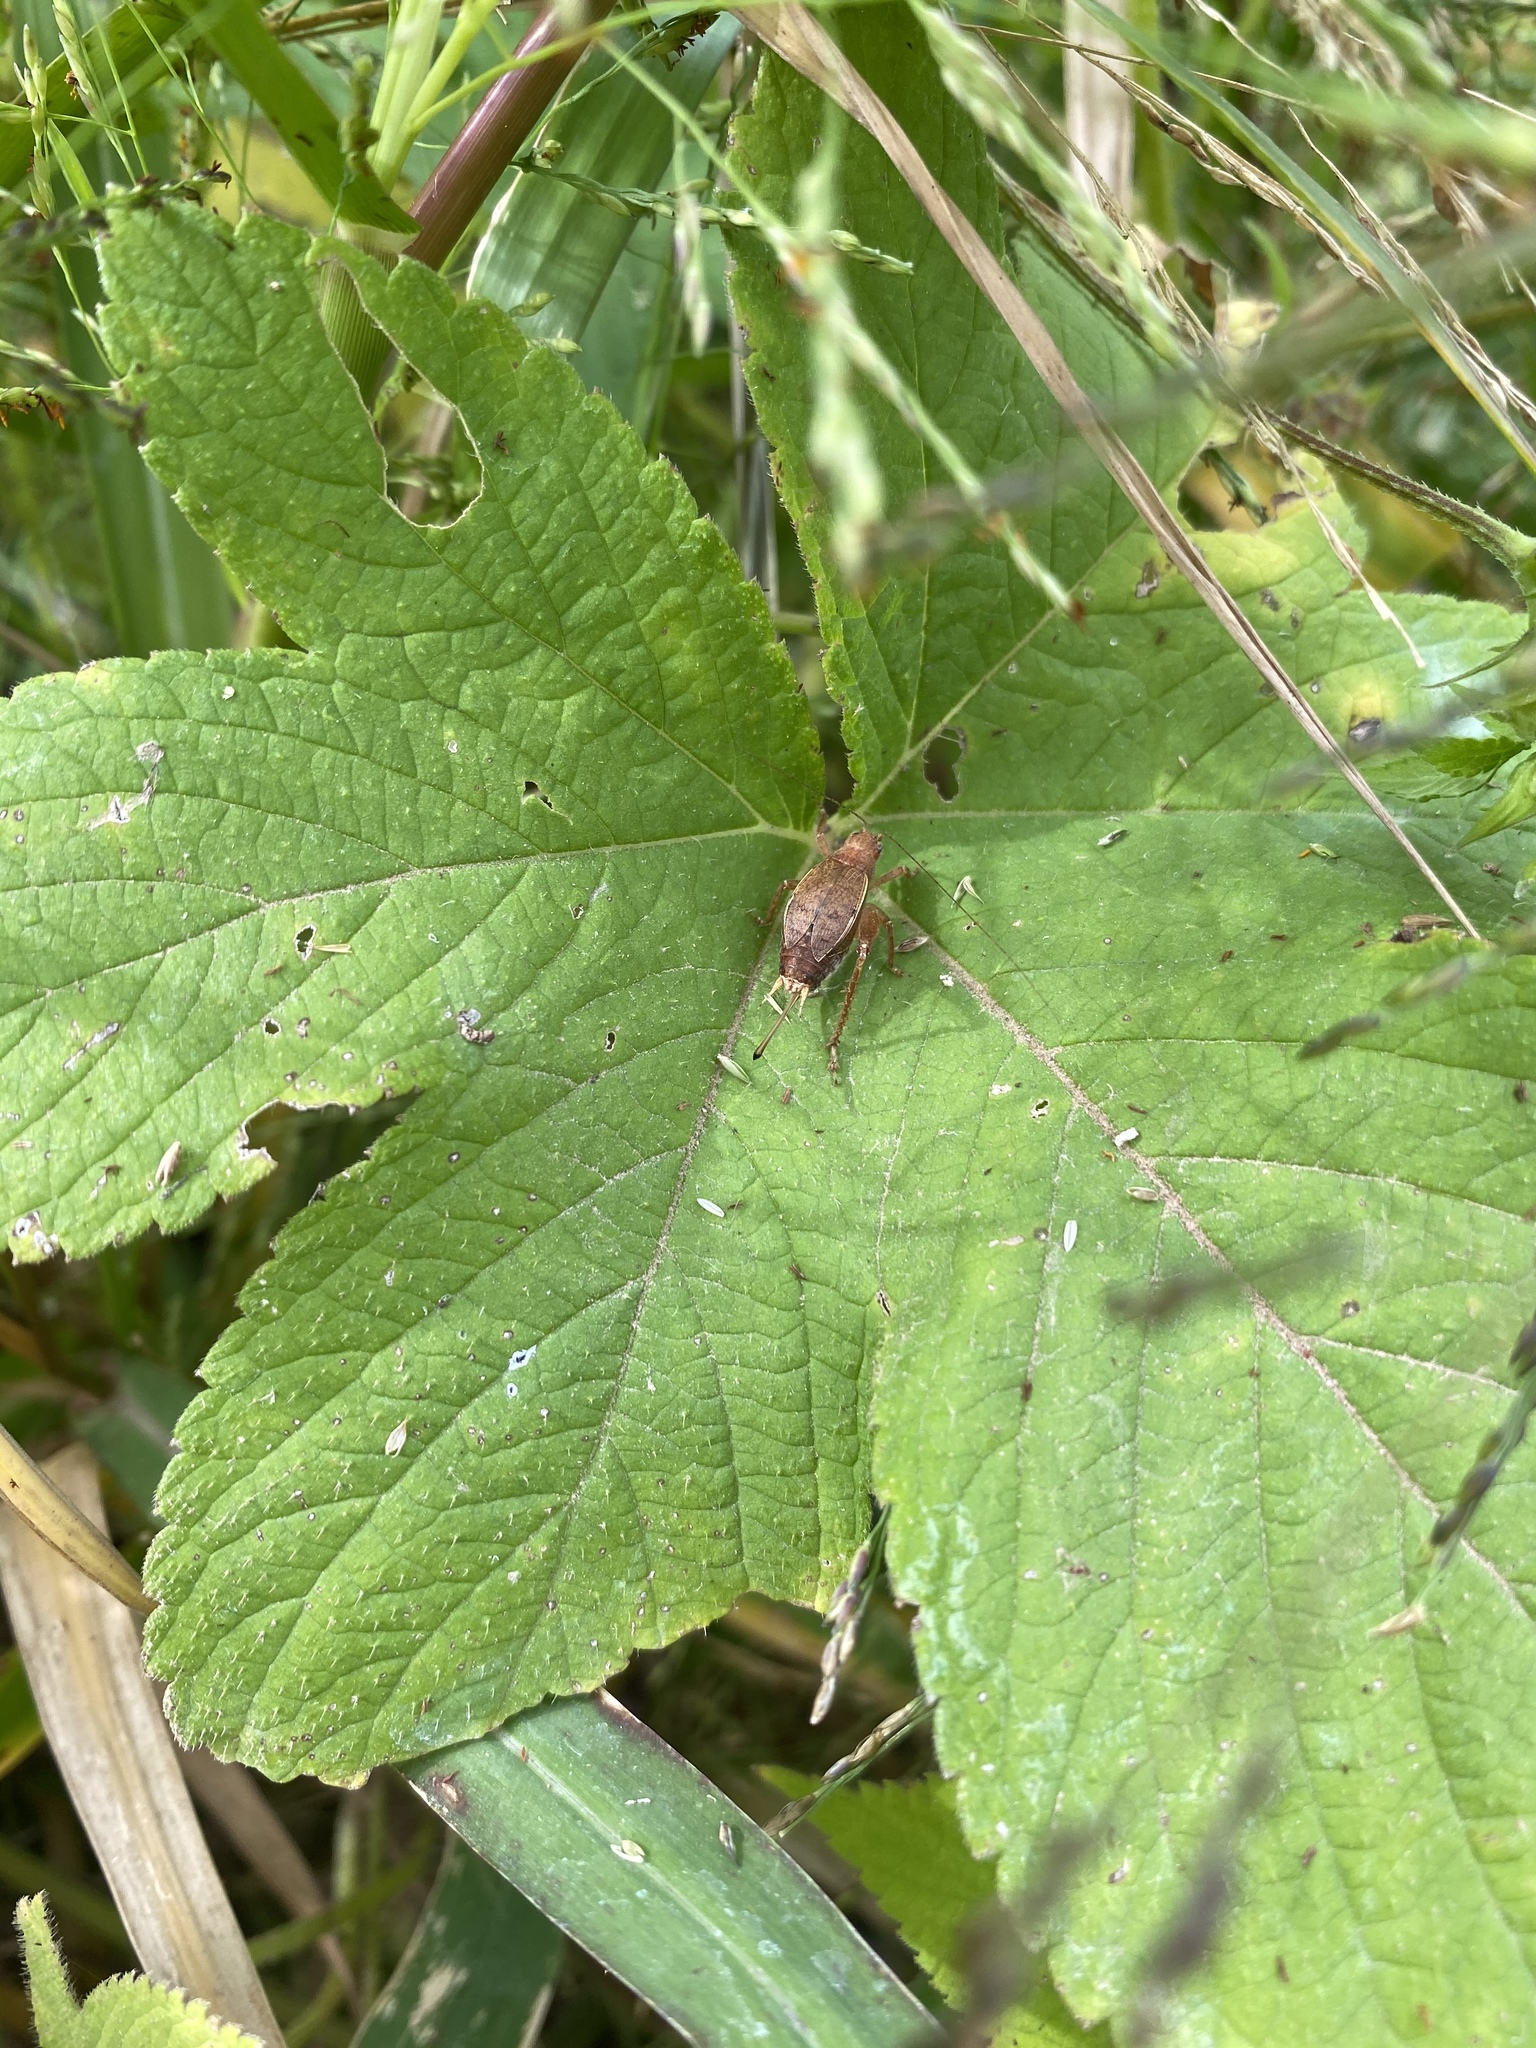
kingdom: Animalia
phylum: Arthropoda
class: Insecta
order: Orthoptera
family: Gryllidae
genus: Hapithus
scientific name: Hapithus agitator
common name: Restless bush cricket
